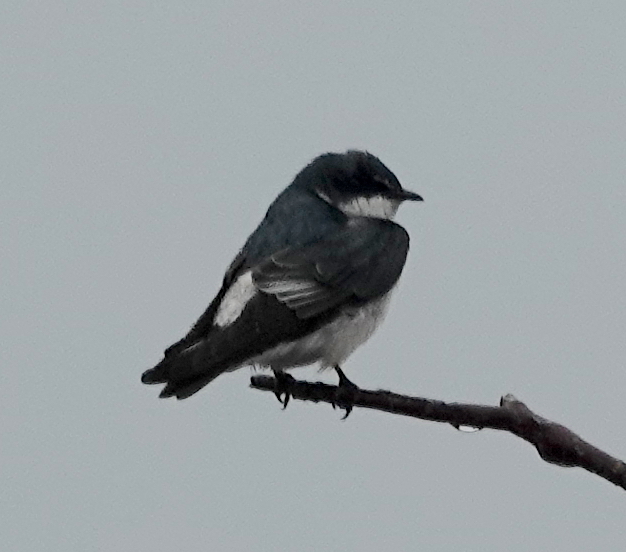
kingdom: Animalia
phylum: Chordata
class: Aves
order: Passeriformes
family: Hirundinidae
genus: Tachycineta
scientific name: Tachycineta albilinea
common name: Mangrove swallow
